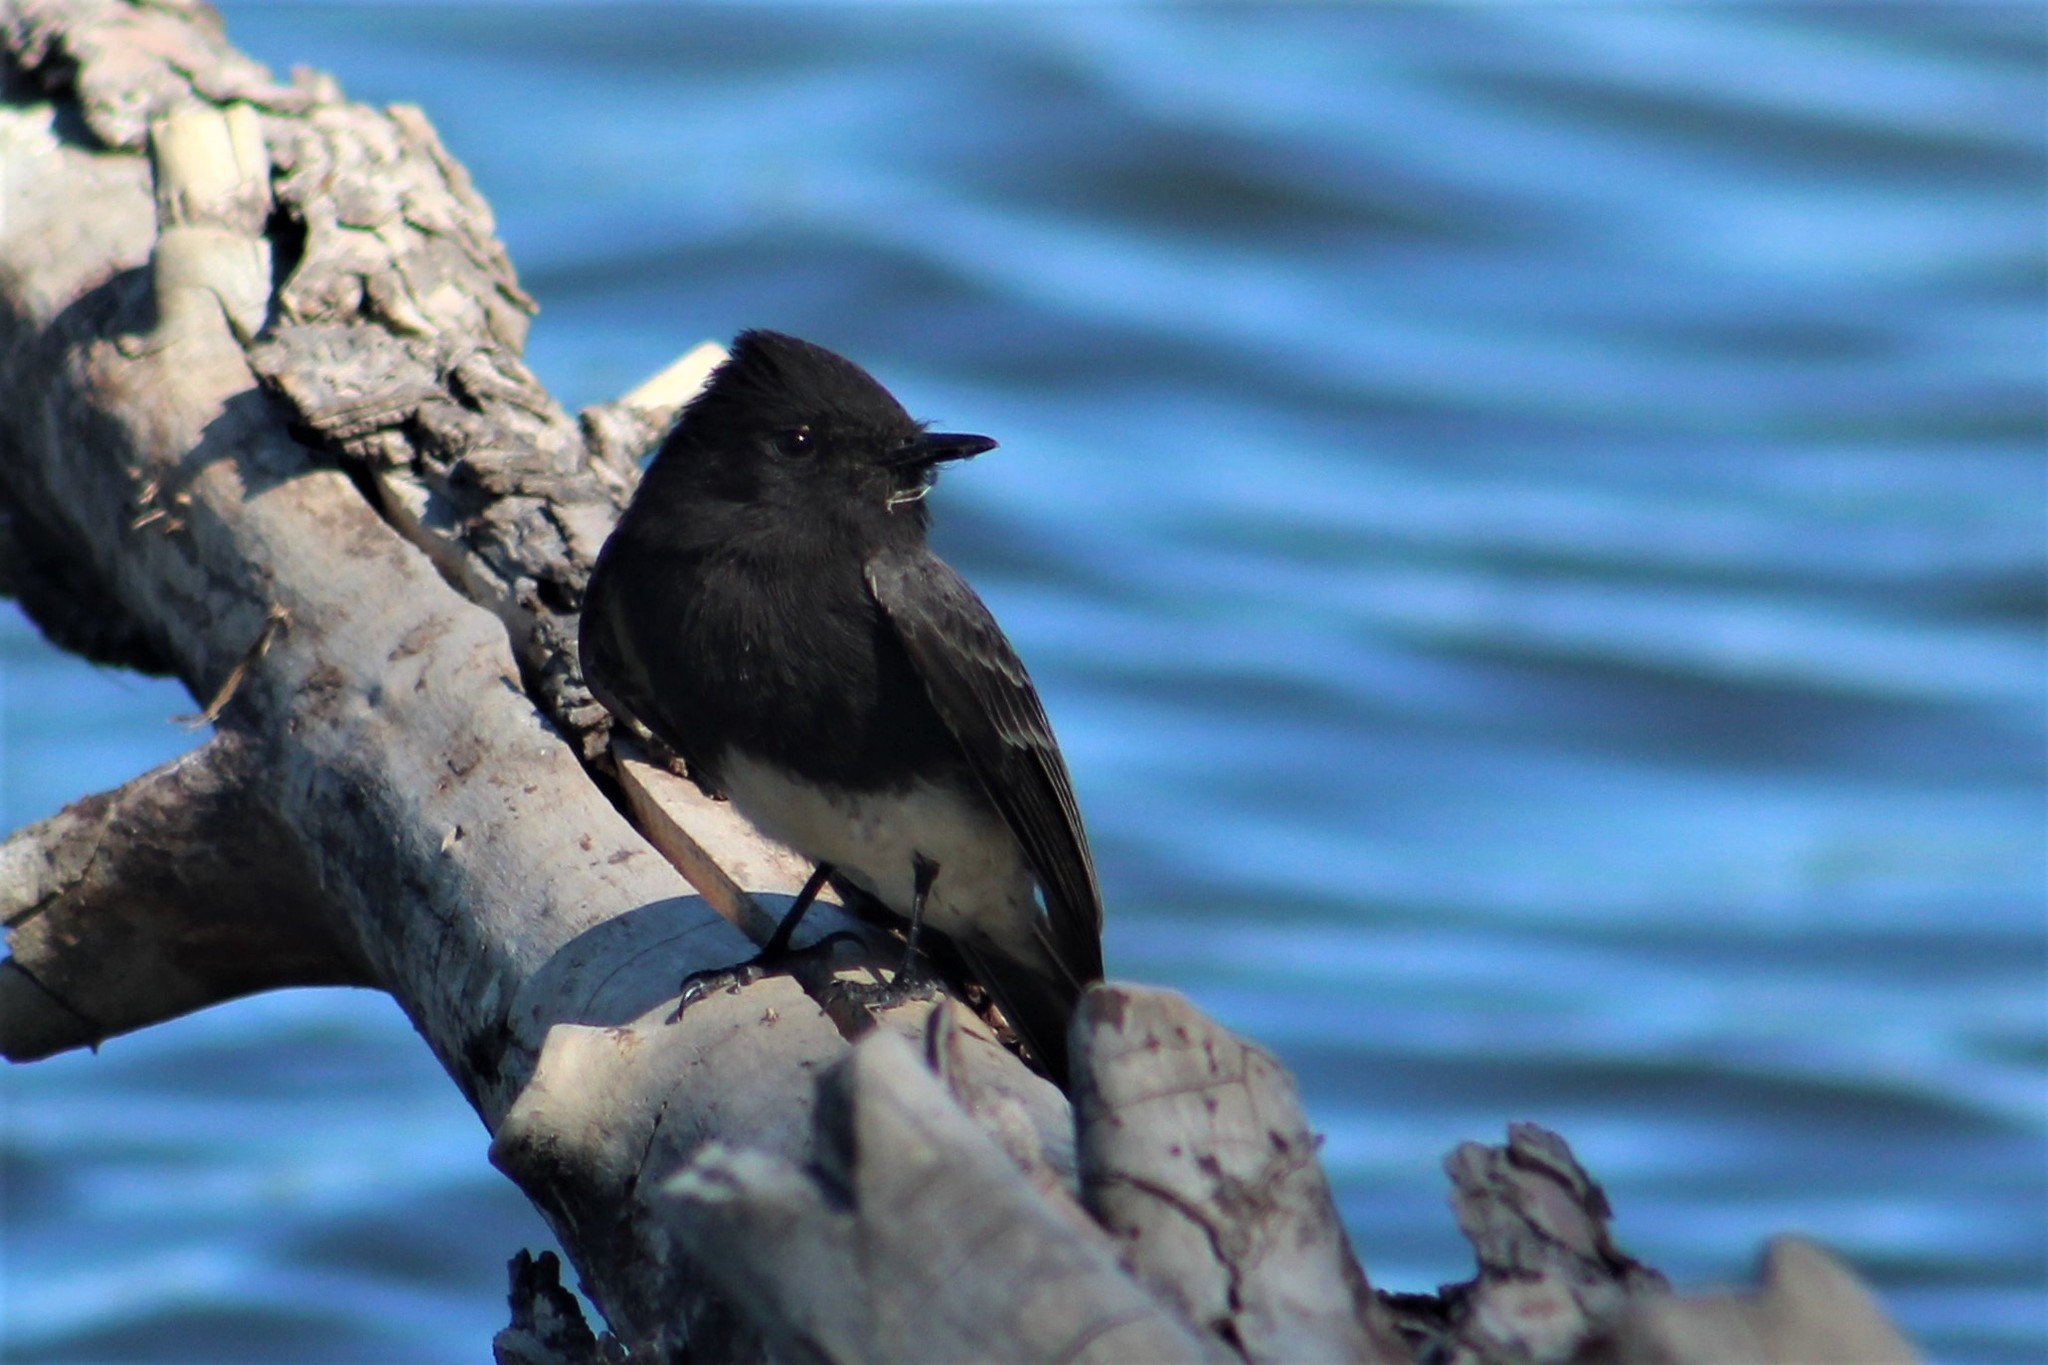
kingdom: Animalia
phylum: Chordata
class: Aves
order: Passeriformes
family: Tyrannidae
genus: Sayornis
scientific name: Sayornis nigricans
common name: Black phoebe
